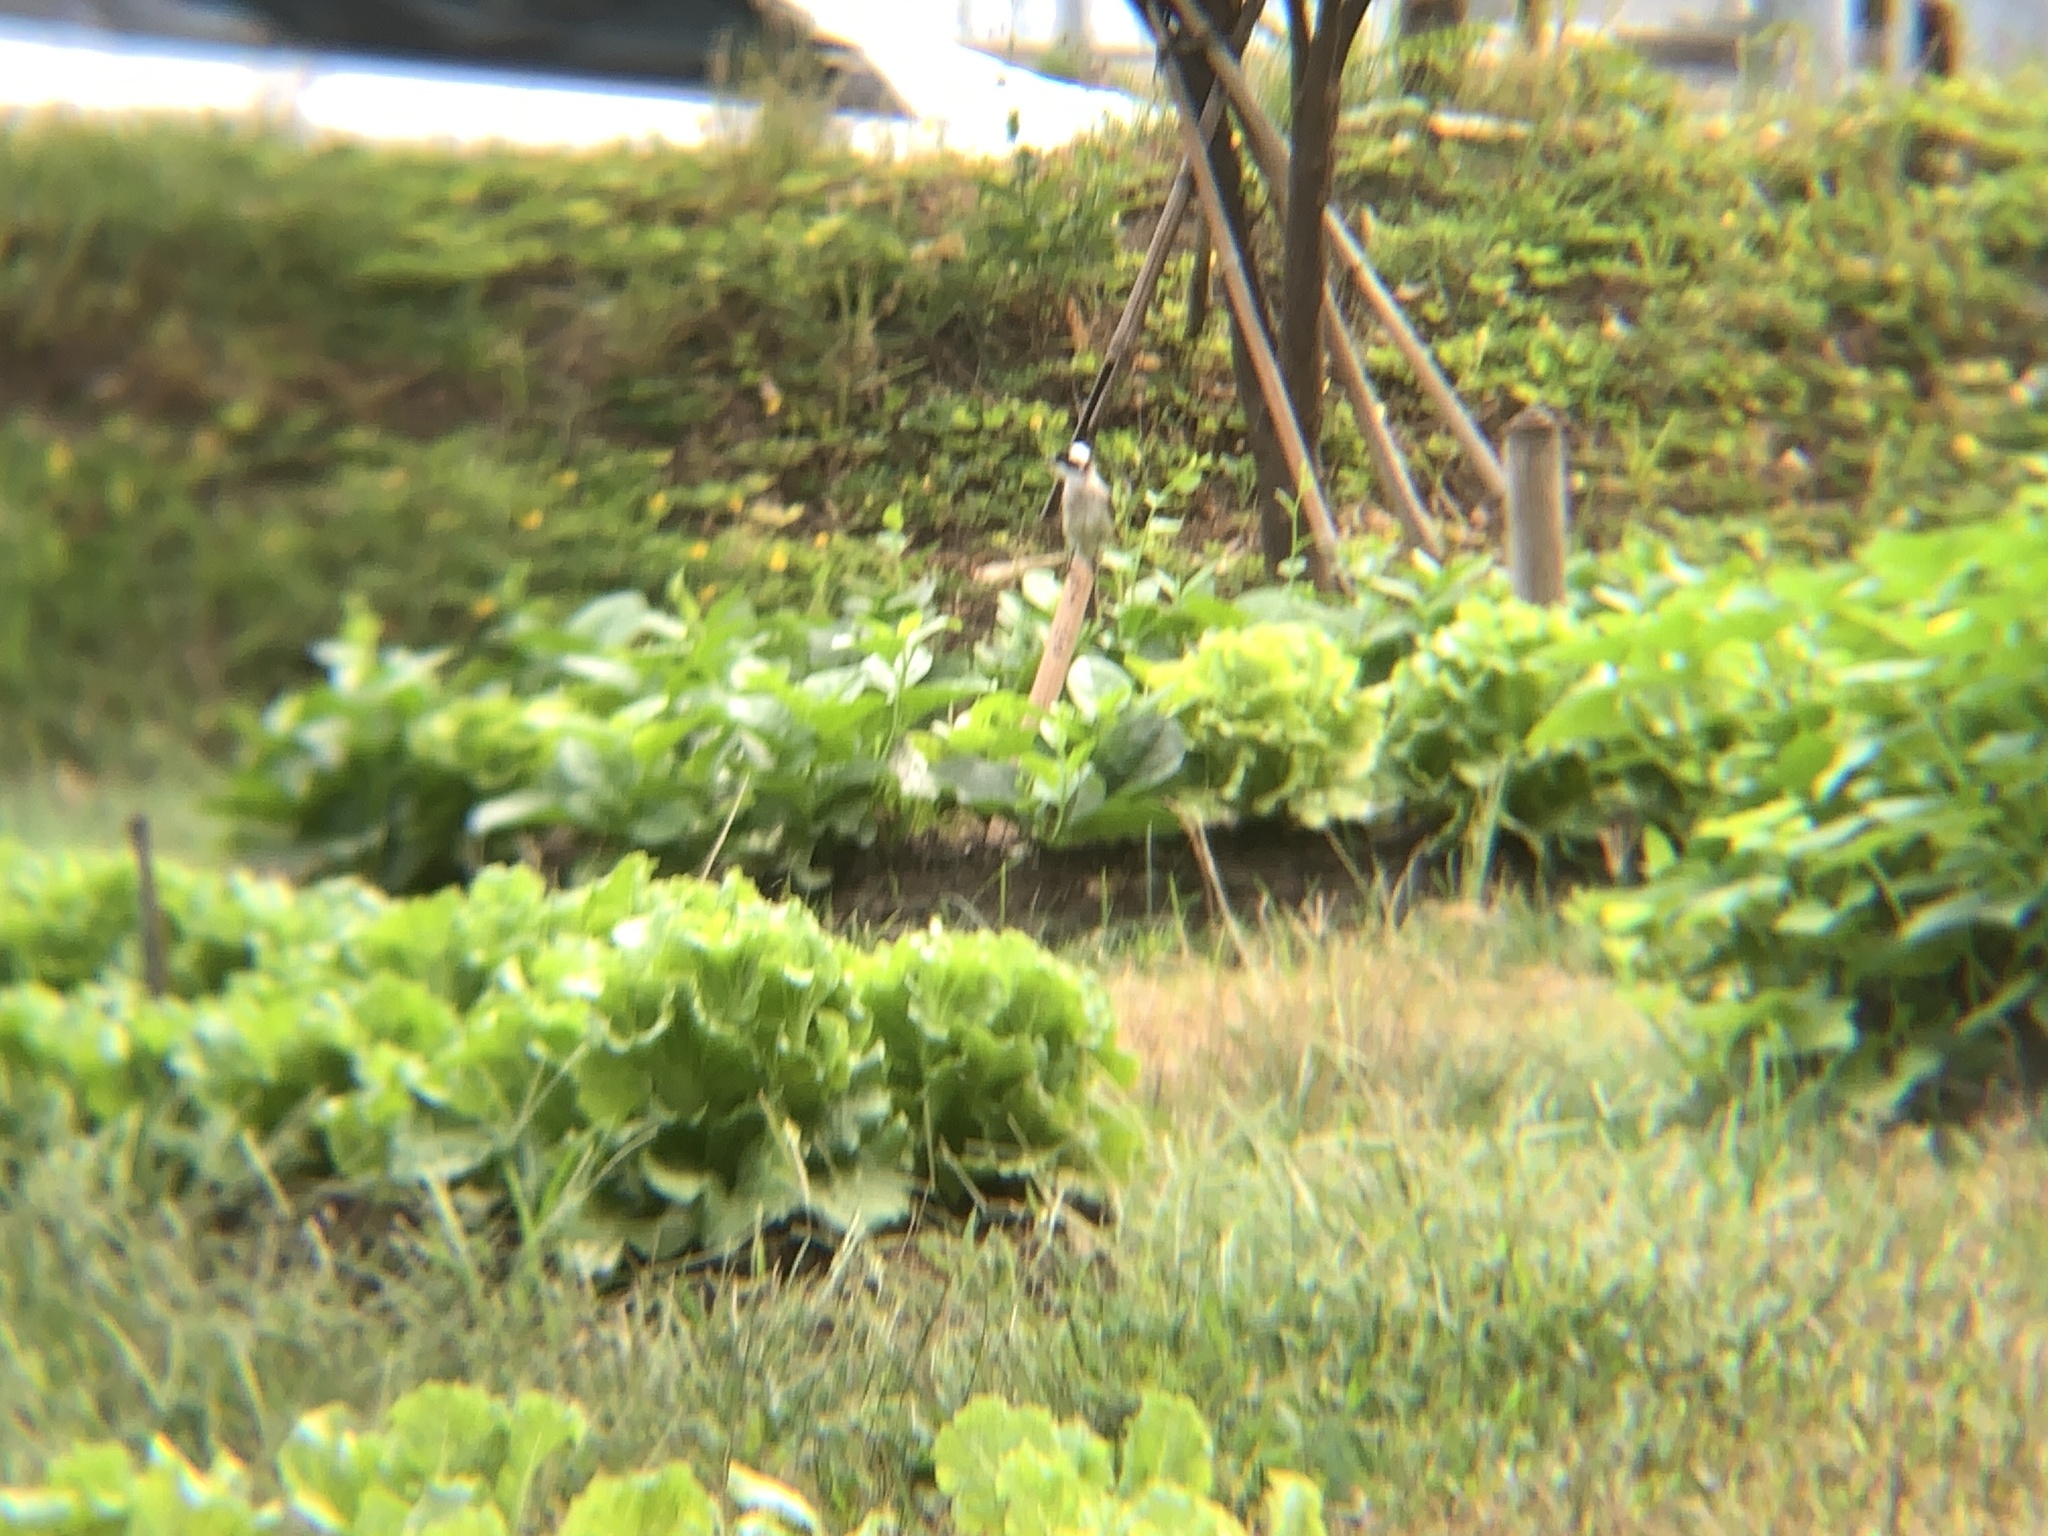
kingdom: Animalia
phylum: Chordata
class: Aves
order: Passeriformes
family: Pycnonotidae
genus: Pycnonotus
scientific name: Pycnonotus sinensis
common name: Light-vented bulbul
